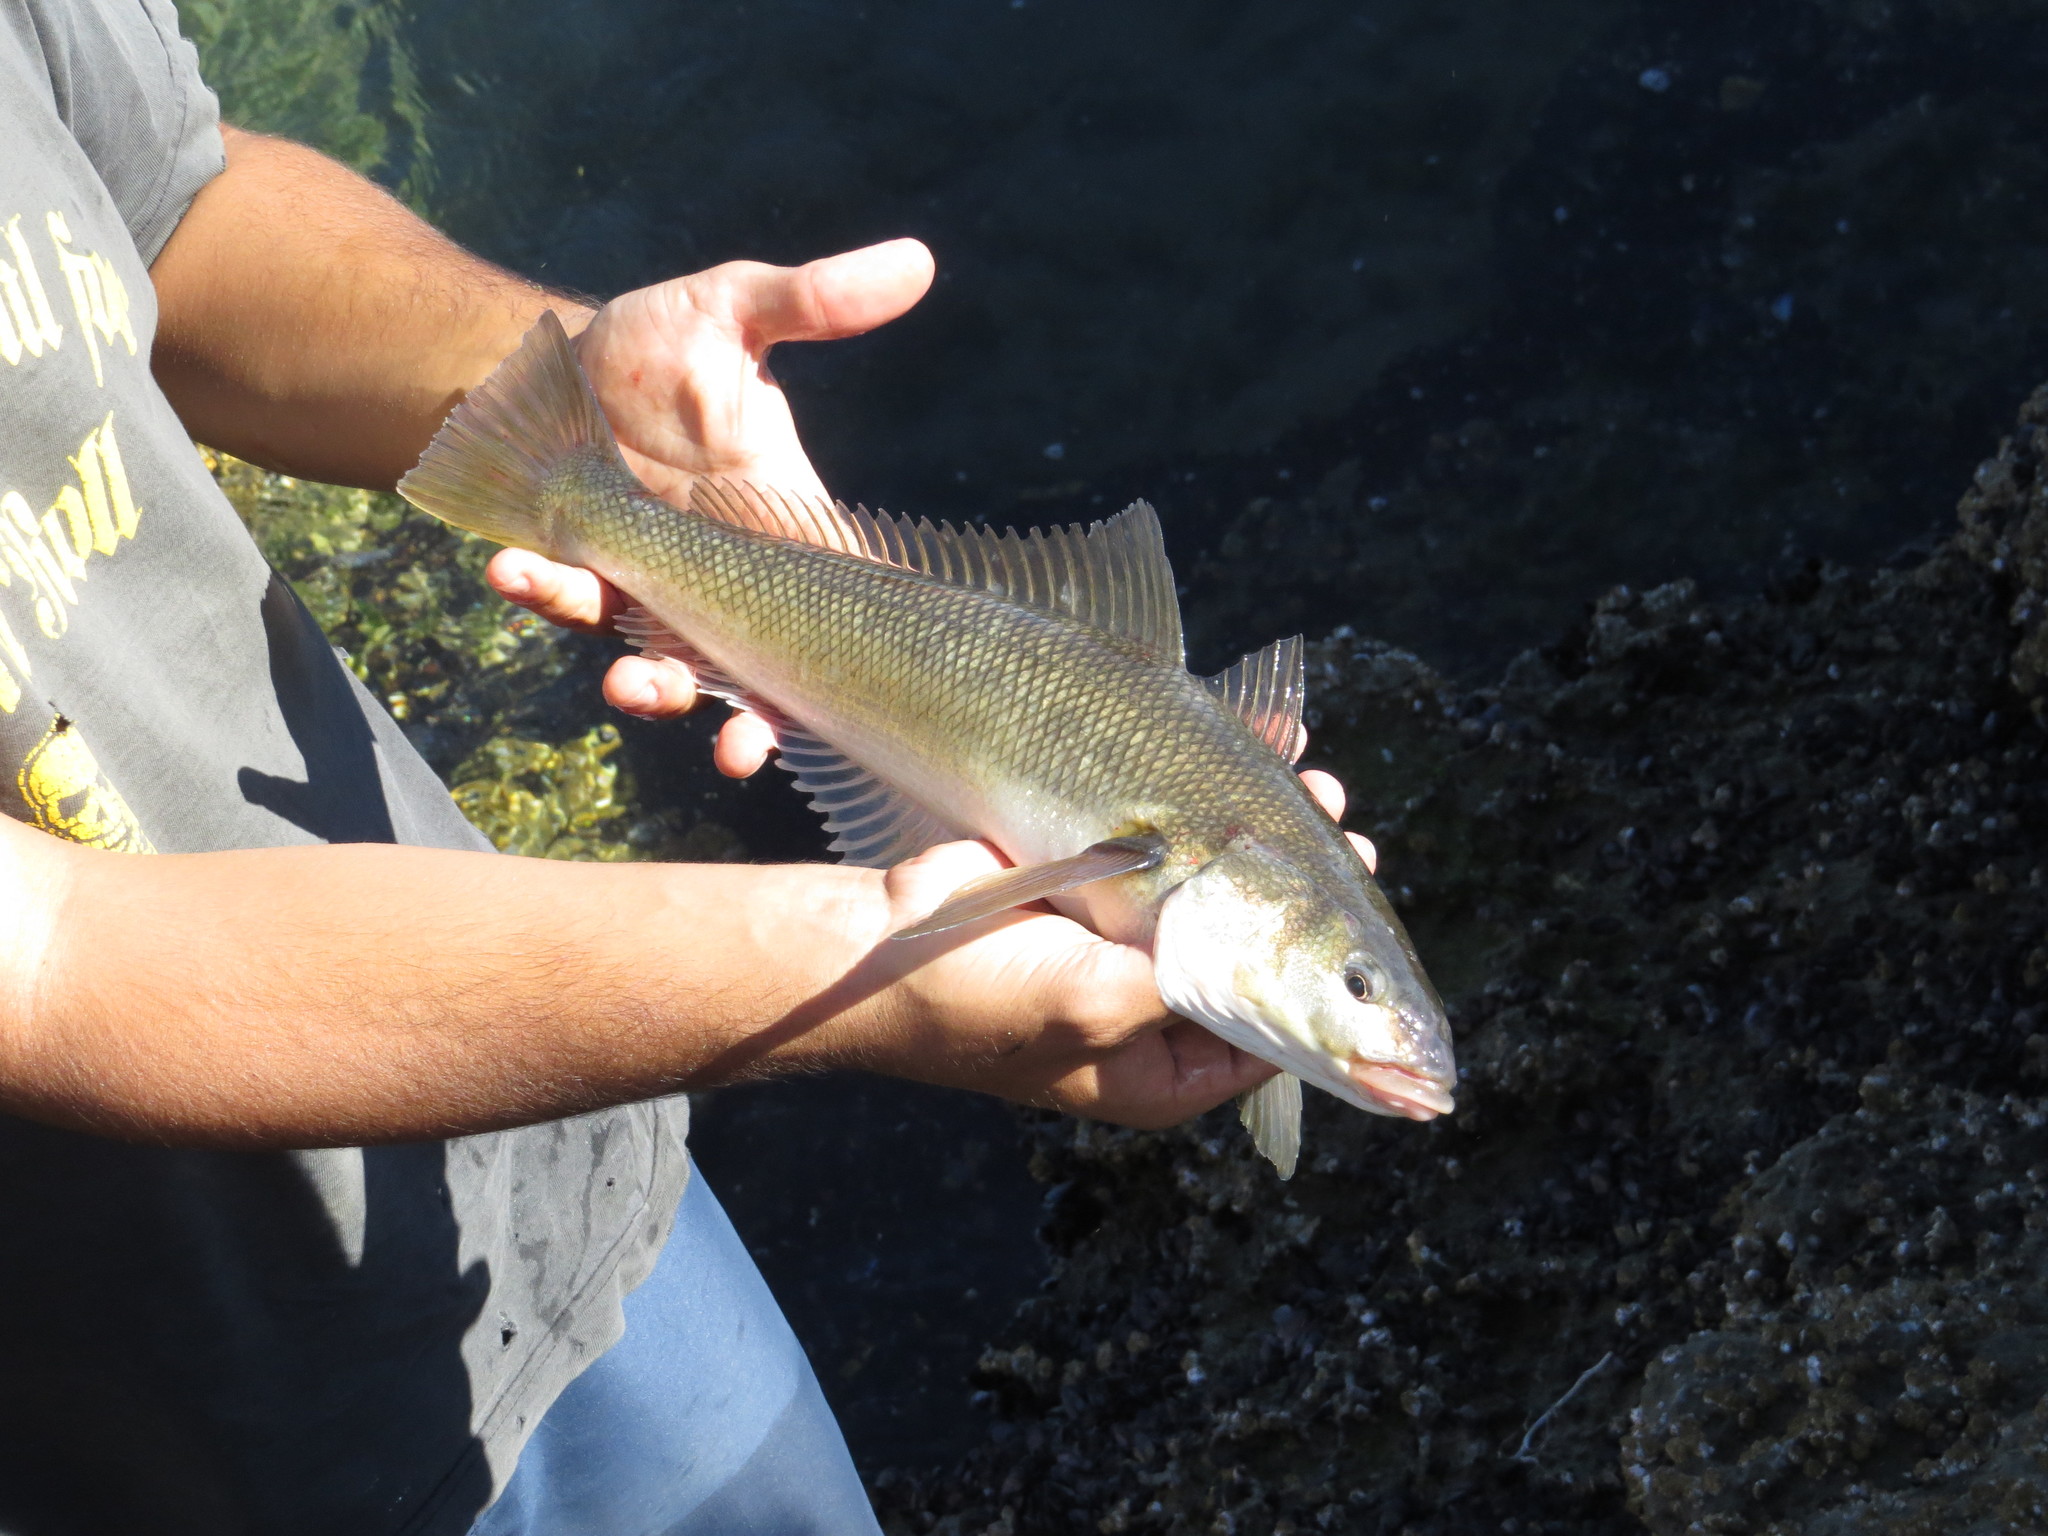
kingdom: Animalia
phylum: Chordata
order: Perciformes
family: Eleginopsidae
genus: Eleginops
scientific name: Eleginops maclovinus
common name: Patagonian blennie
